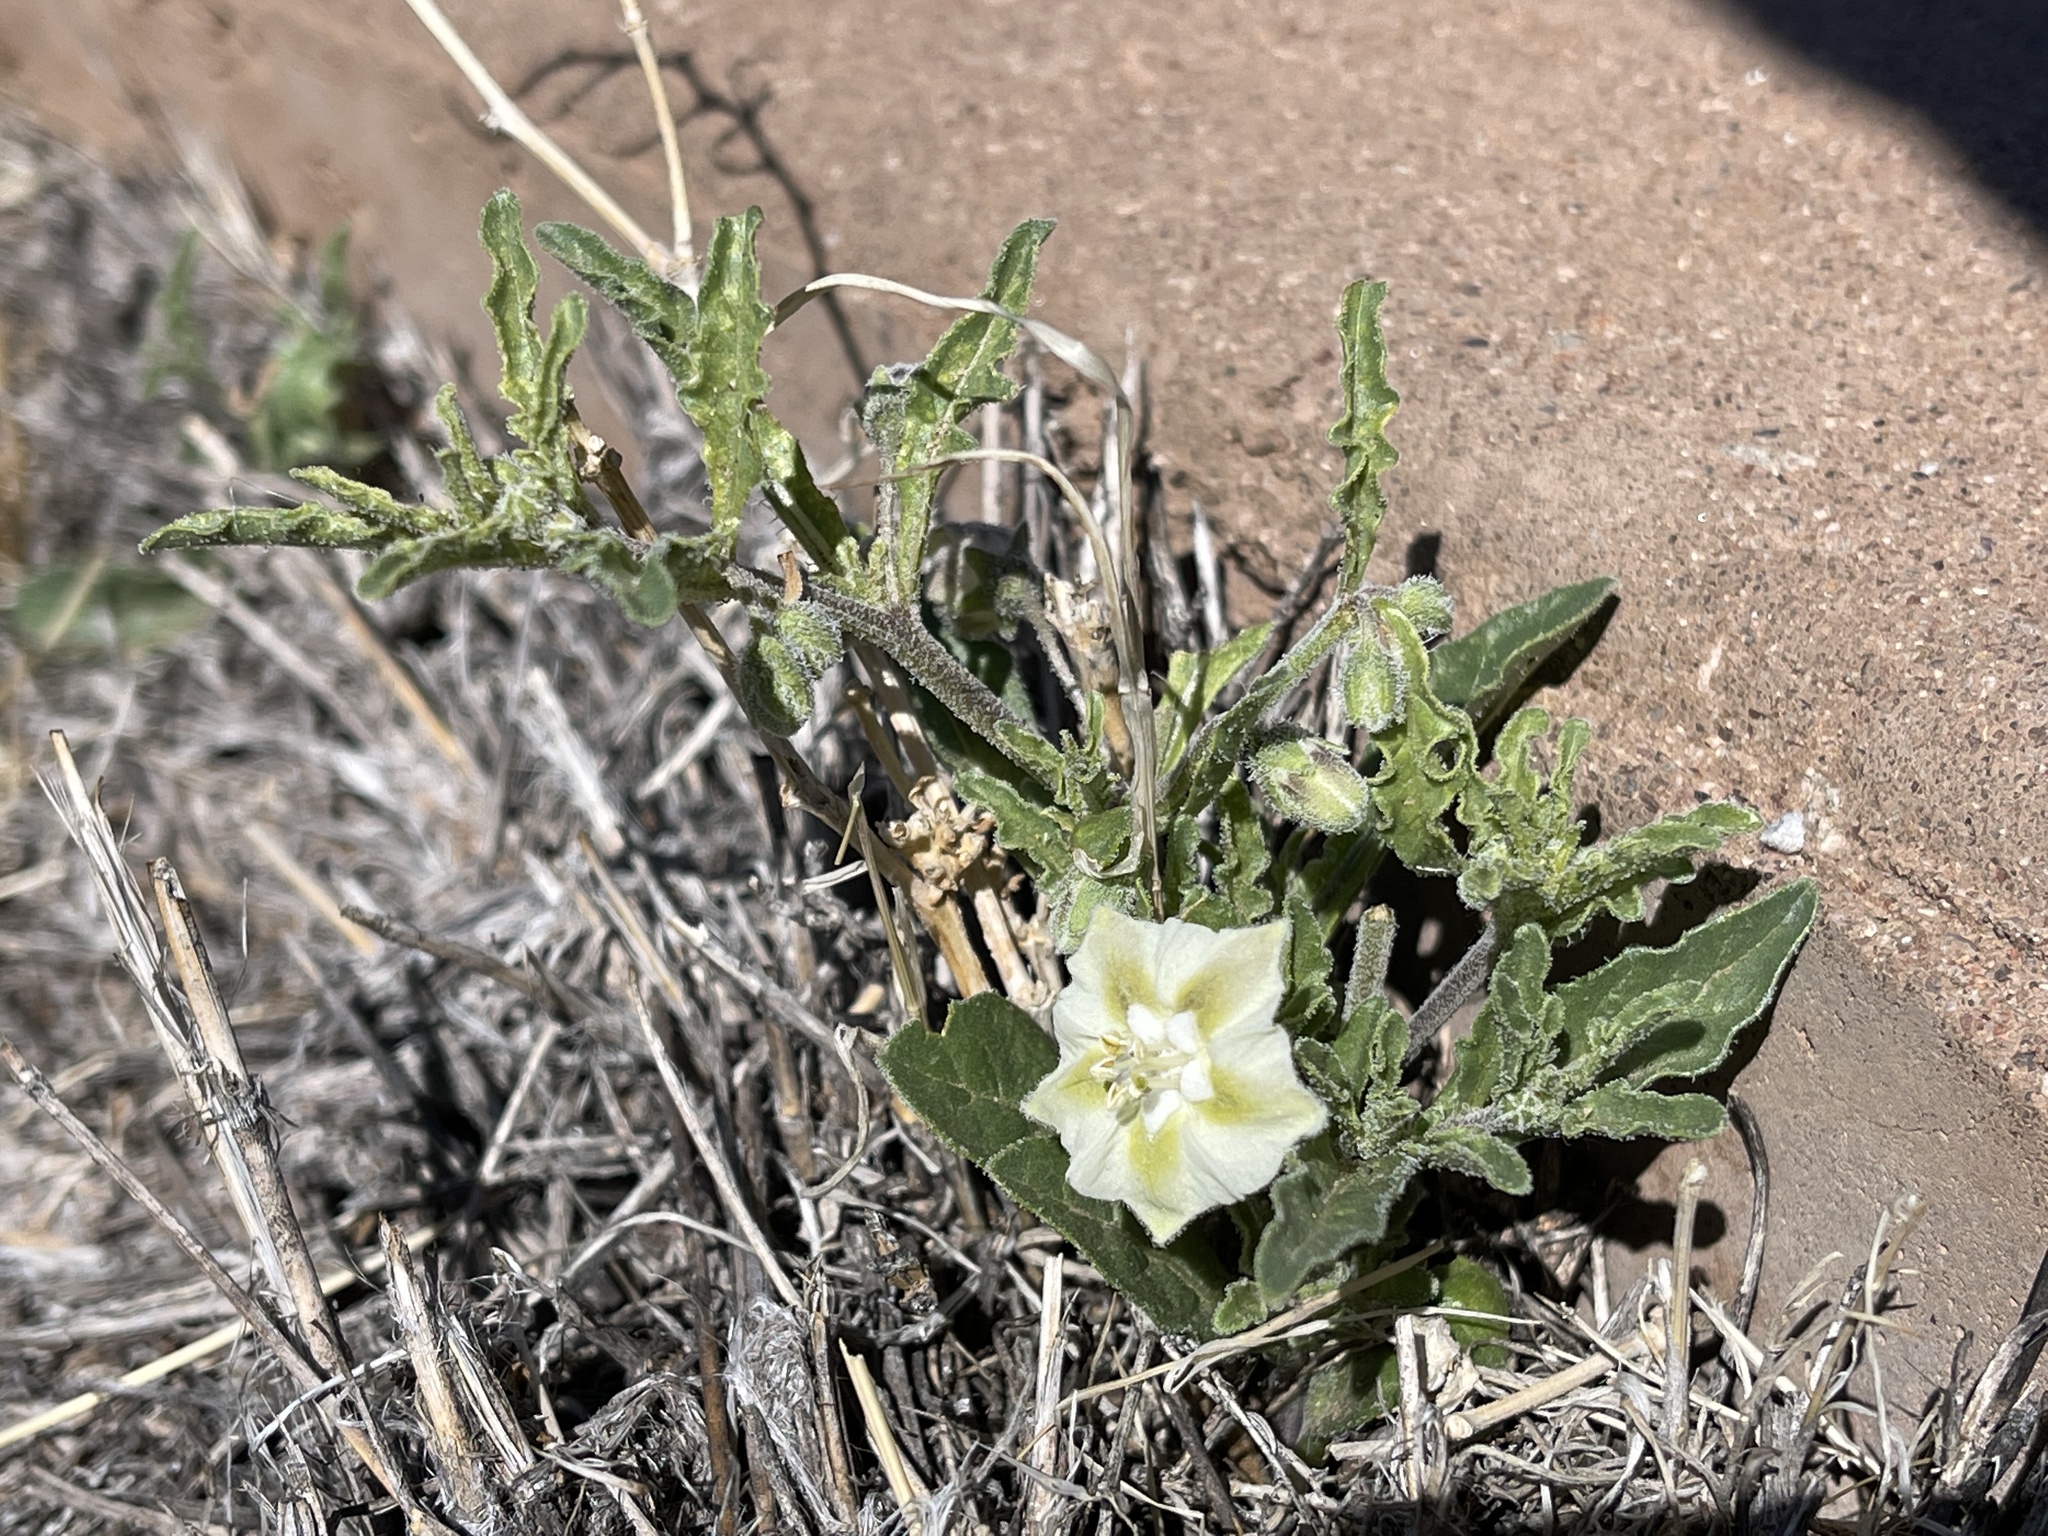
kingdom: Plantae
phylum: Tracheophyta
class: Magnoliopsida
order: Solanales
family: Solanaceae
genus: Chamaesaracha
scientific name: Chamaesaracha coronopus
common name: Smooth chamaesaracha
